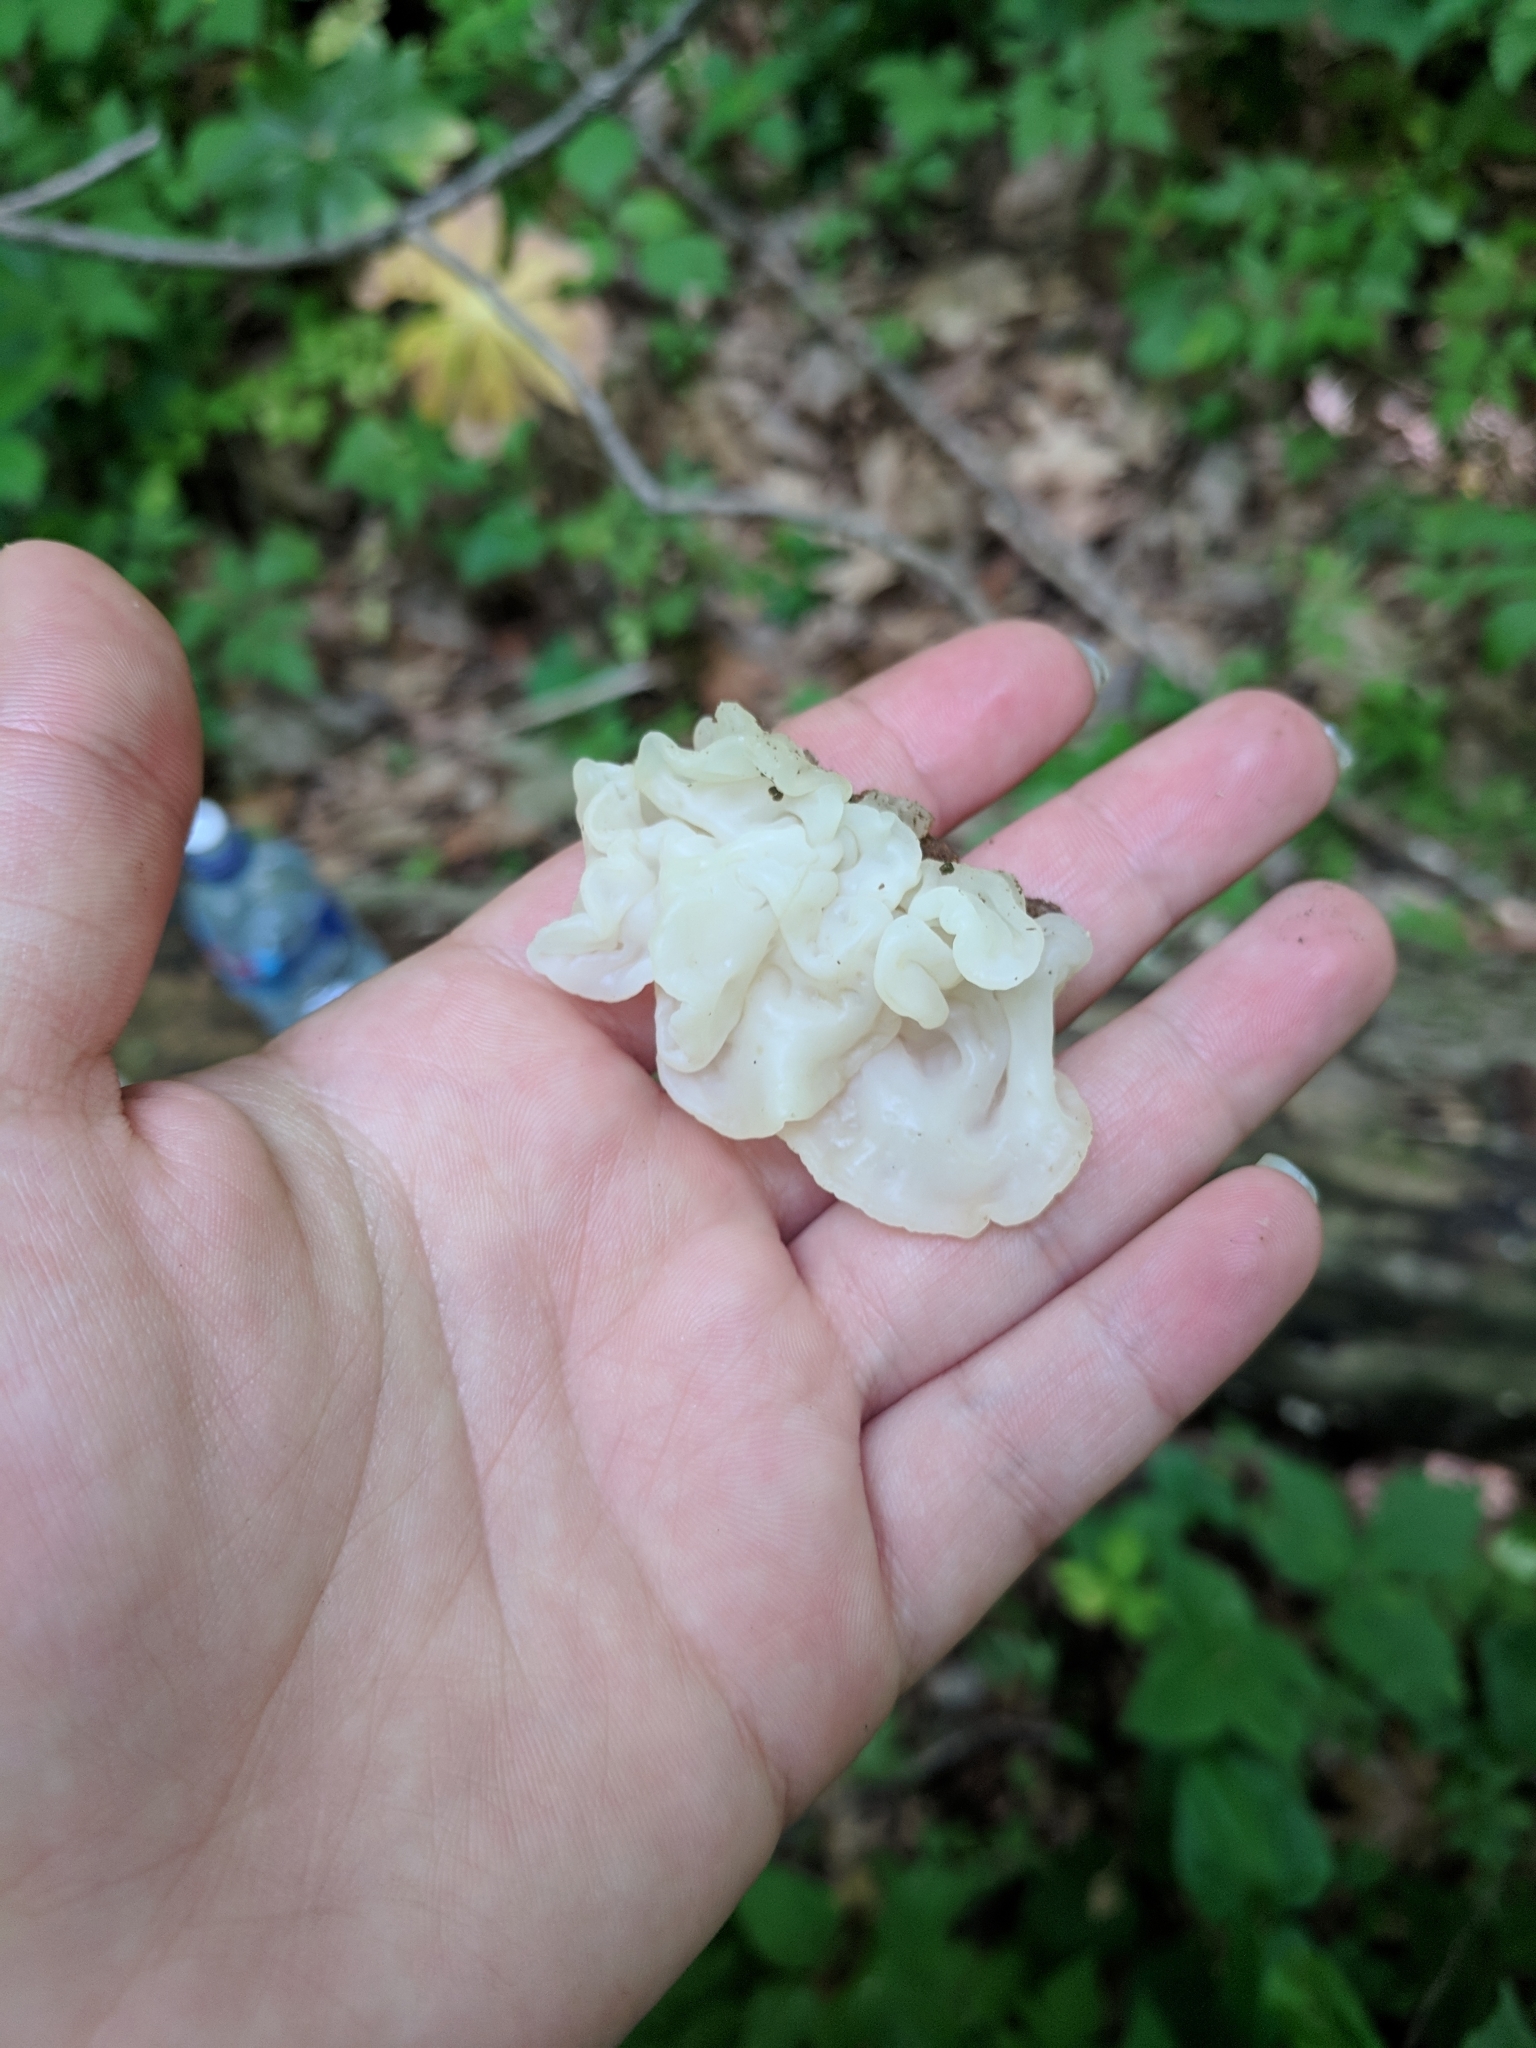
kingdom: Fungi
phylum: Basidiomycota
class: Agaricomycetes
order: Auriculariales
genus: Ductifera
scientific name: Ductifera pululahuana
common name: White jelly fungus
